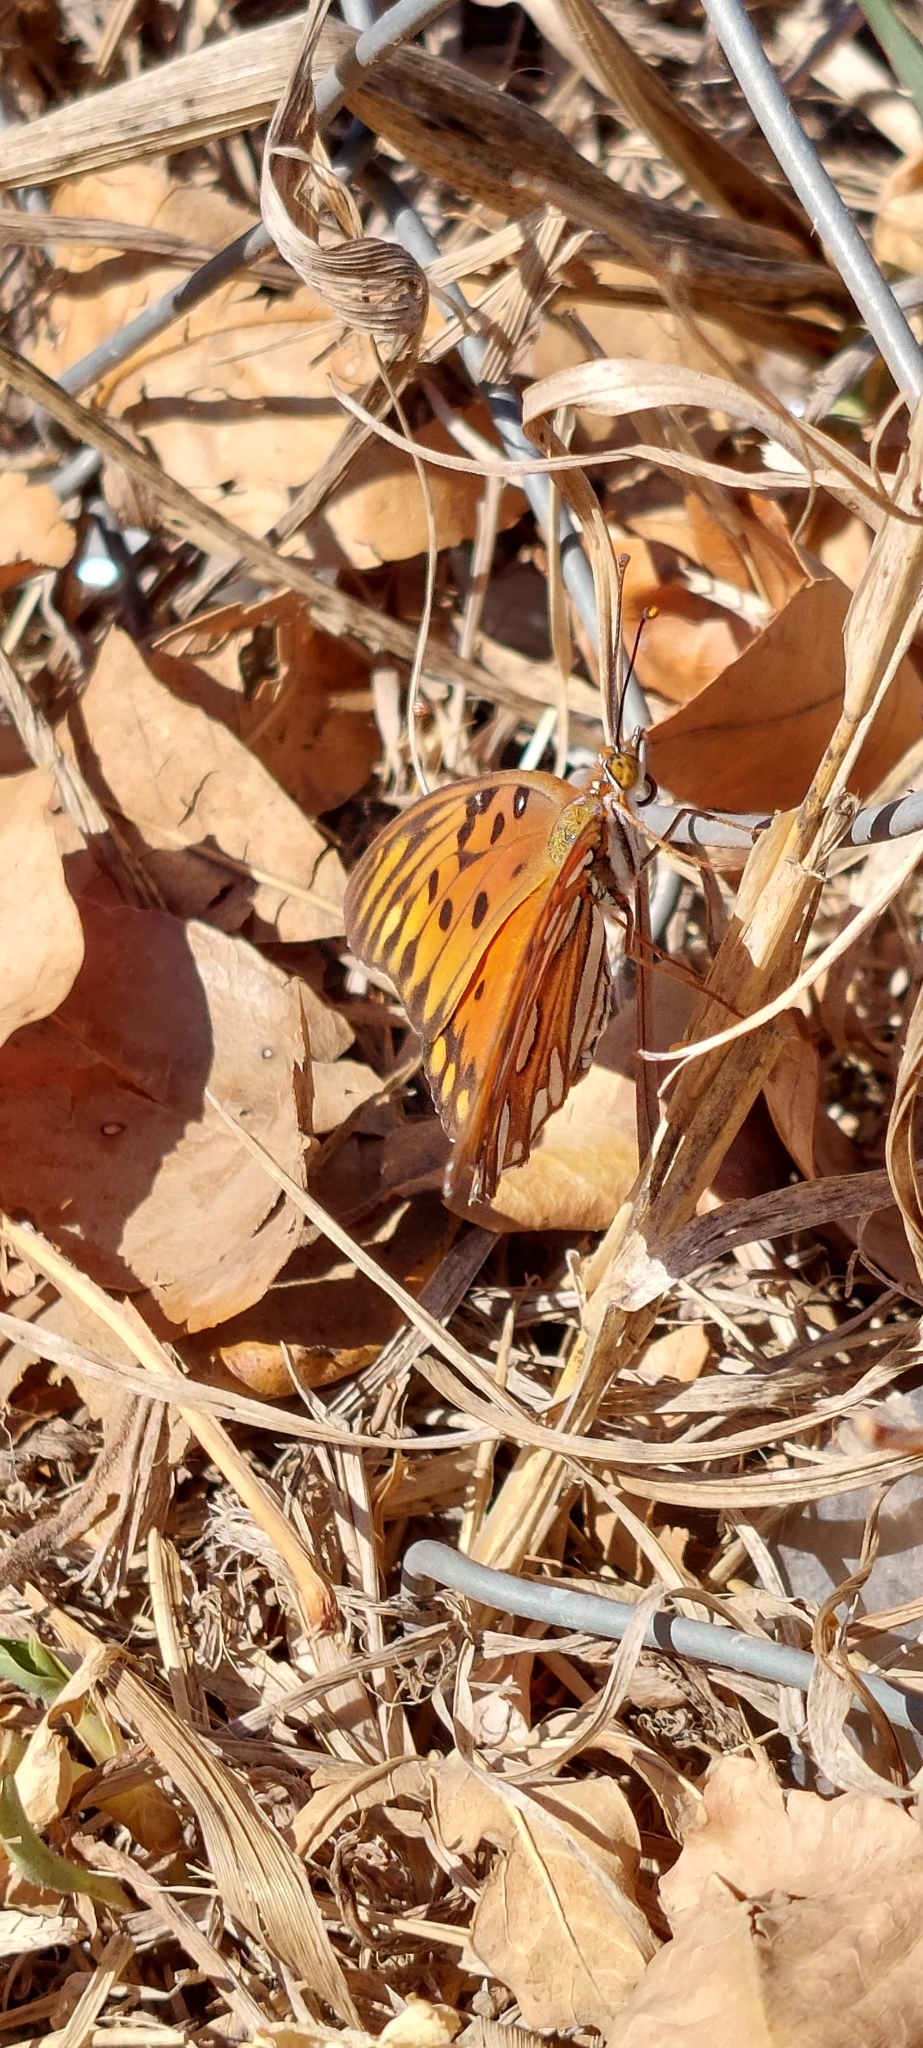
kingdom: Animalia
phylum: Arthropoda
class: Insecta
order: Lepidoptera
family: Nymphalidae
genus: Dione
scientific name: Dione vanillae
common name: Gulf fritillary
